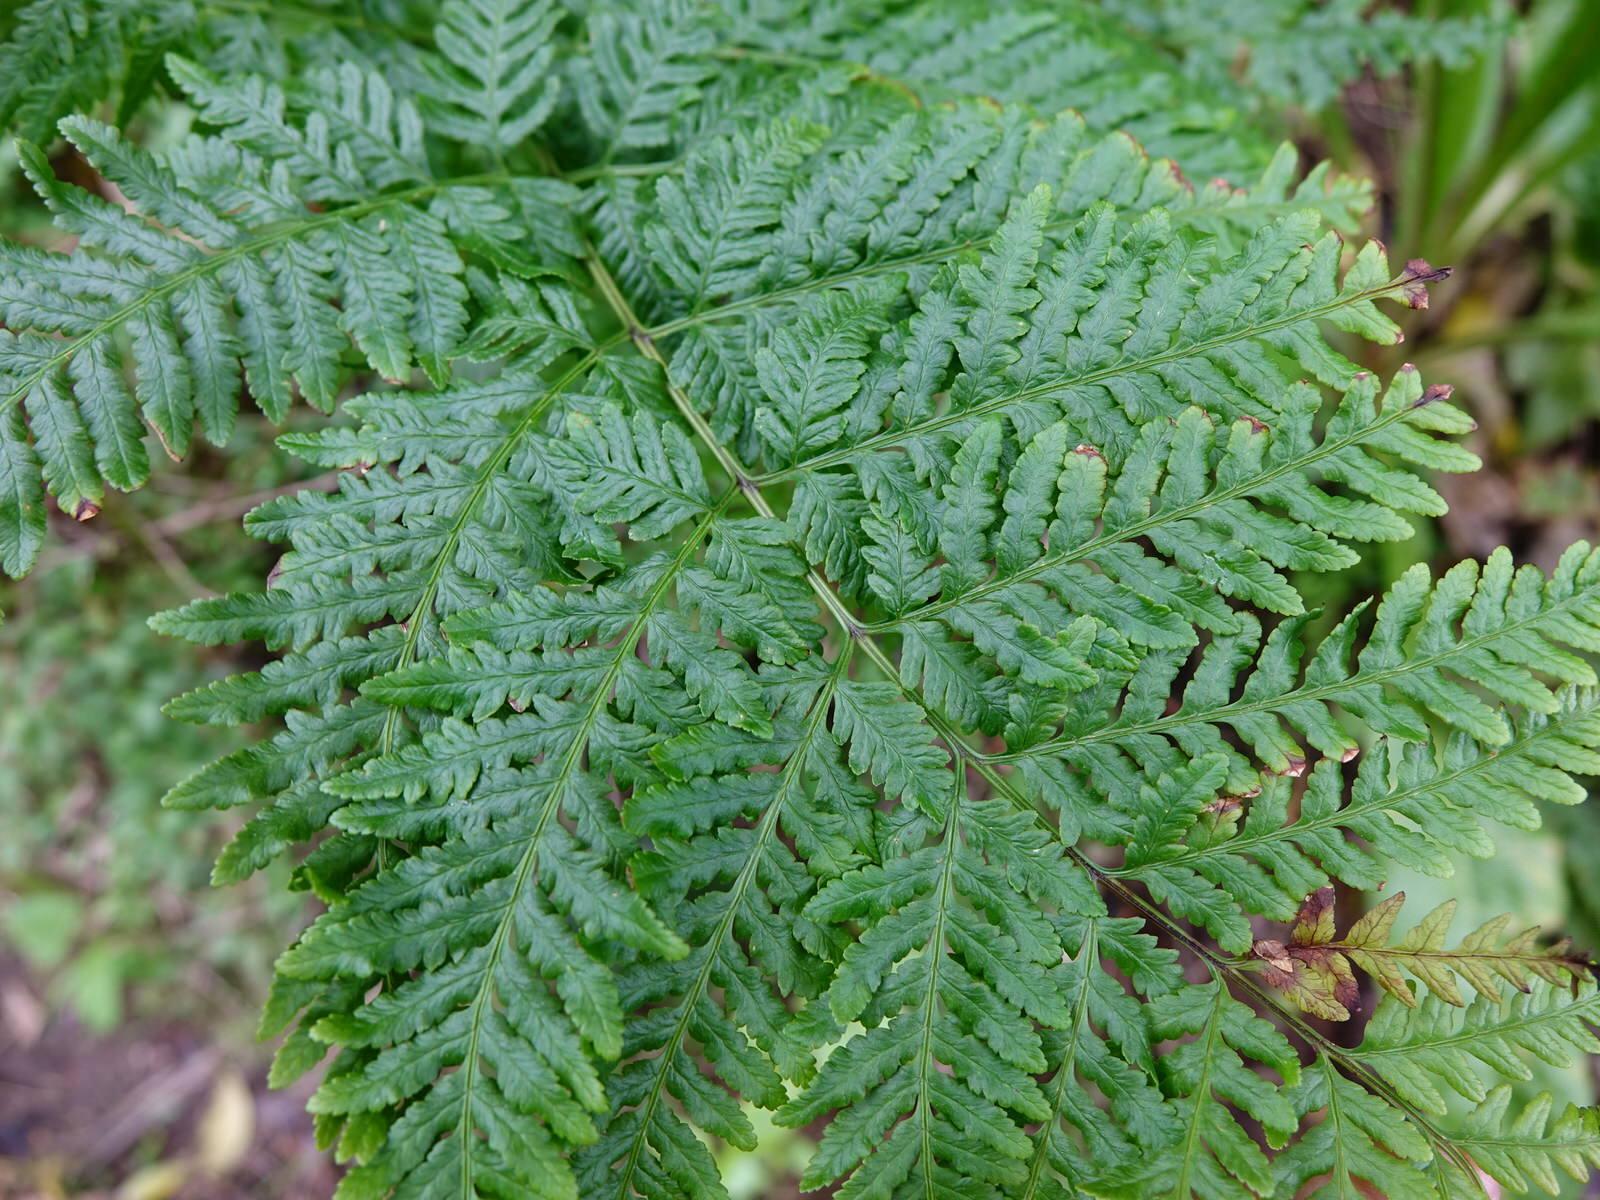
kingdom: Plantae
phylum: Tracheophyta
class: Polypodiopsida
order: Polypodiales
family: Pteridaceae
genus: Pteris
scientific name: Pteris tremula
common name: Australian brake
